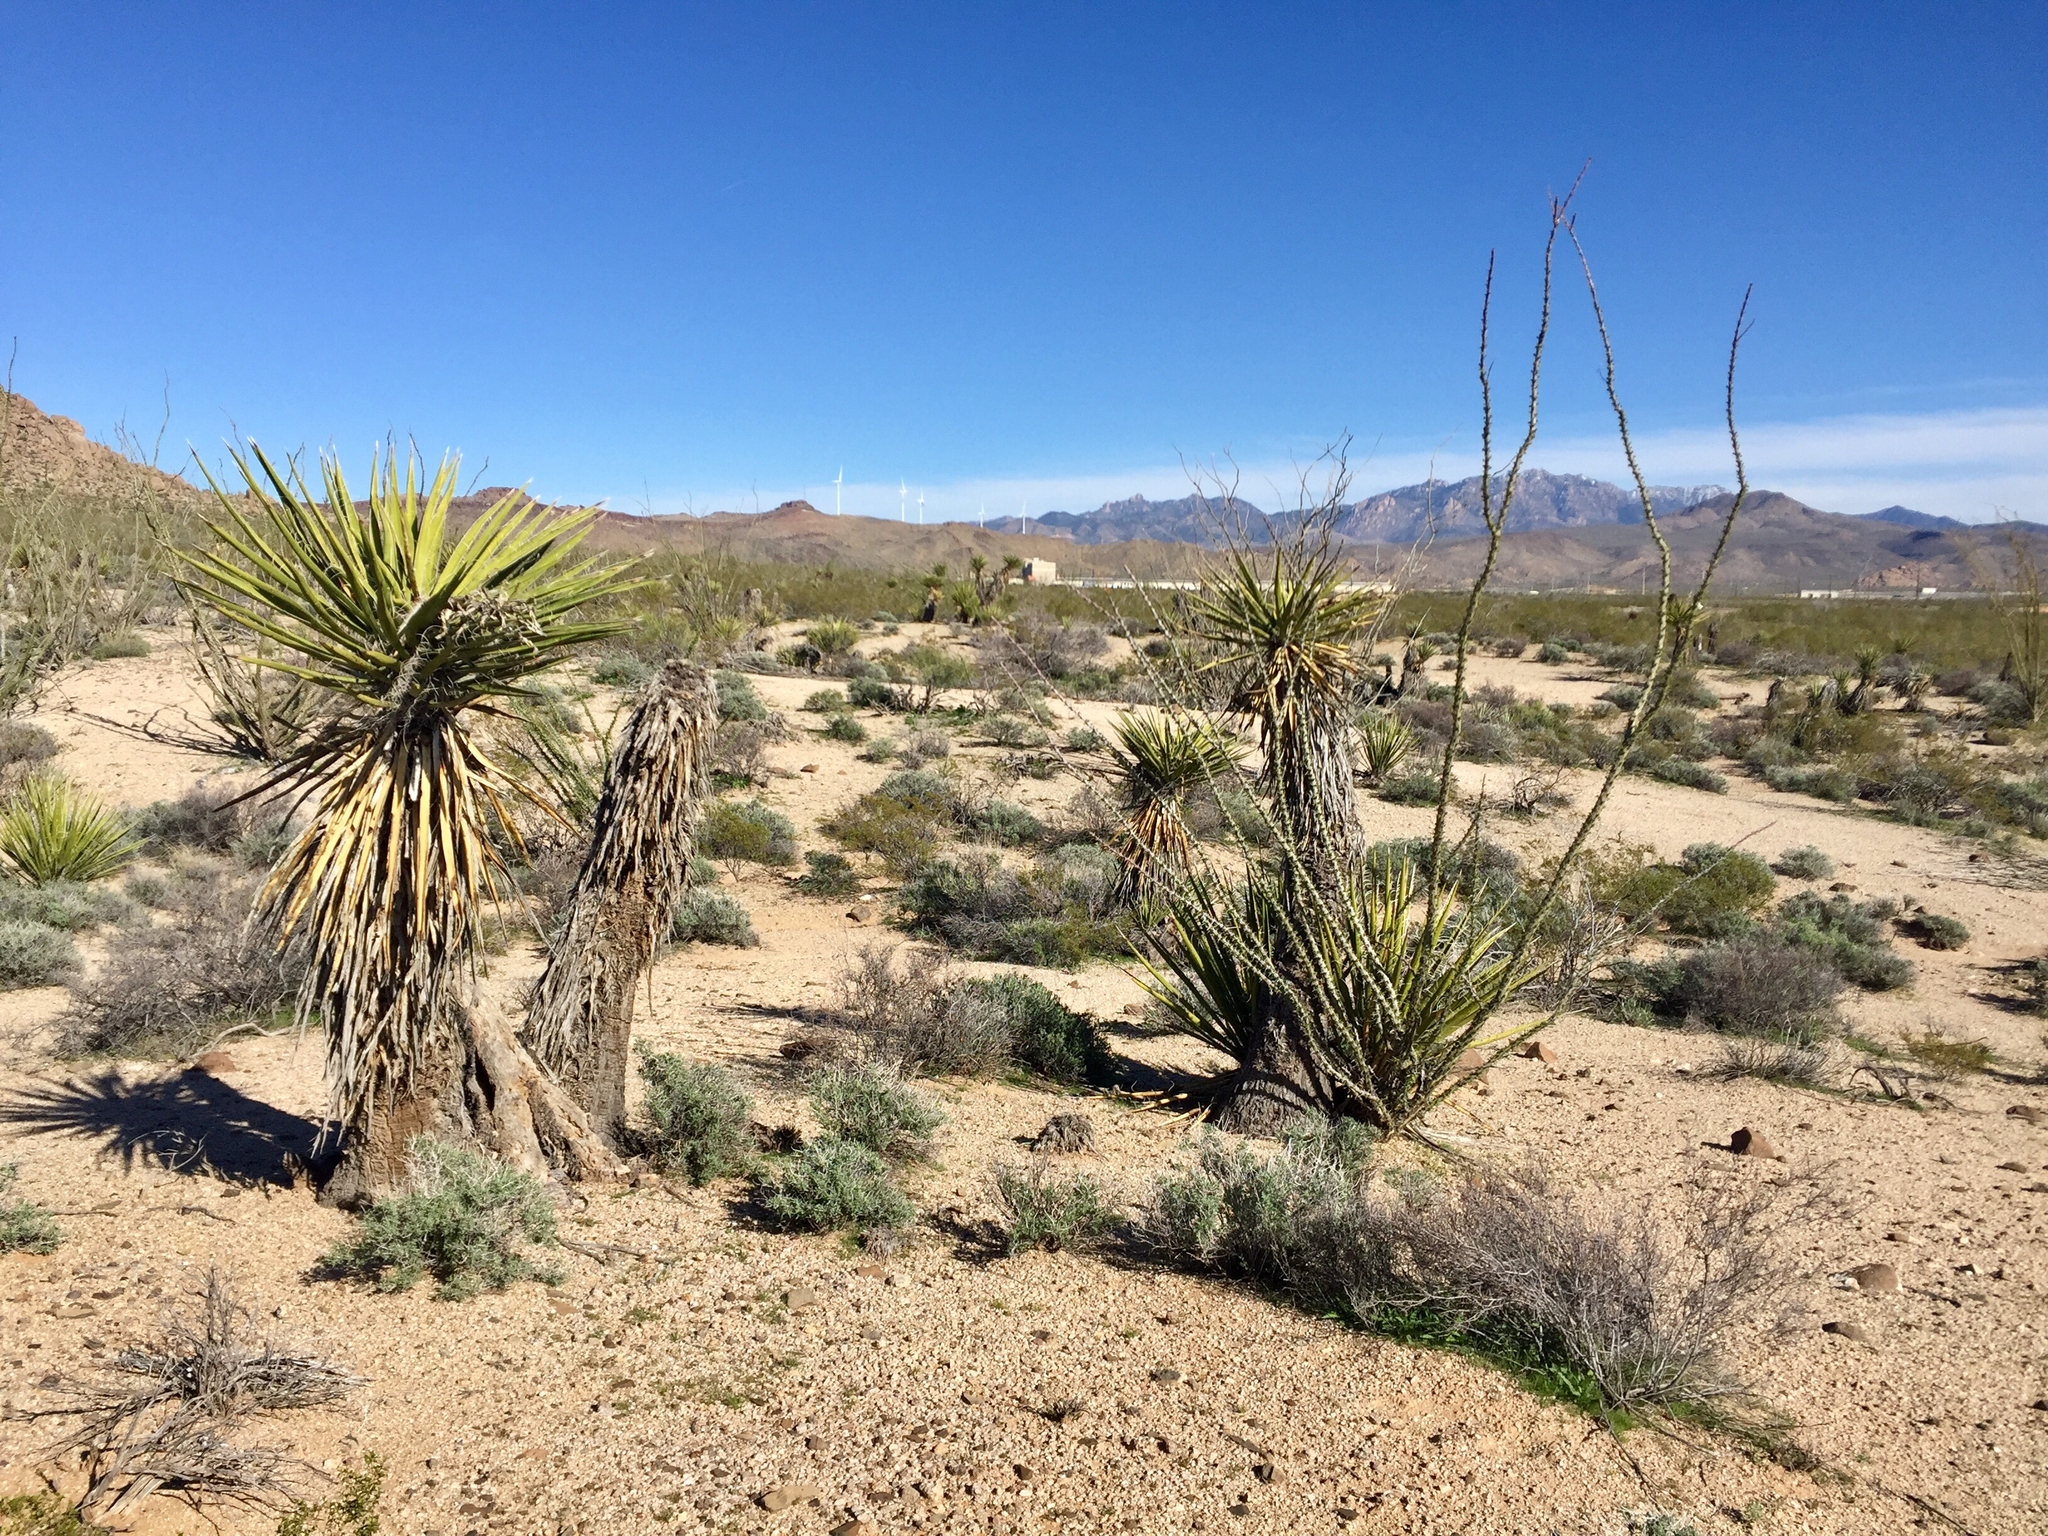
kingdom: Plantae
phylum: Tracheophyta
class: Liliopsida
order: Asparagales
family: Asparagaceae
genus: Yucca
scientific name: Yucca schidigera
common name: Mojave yucca
